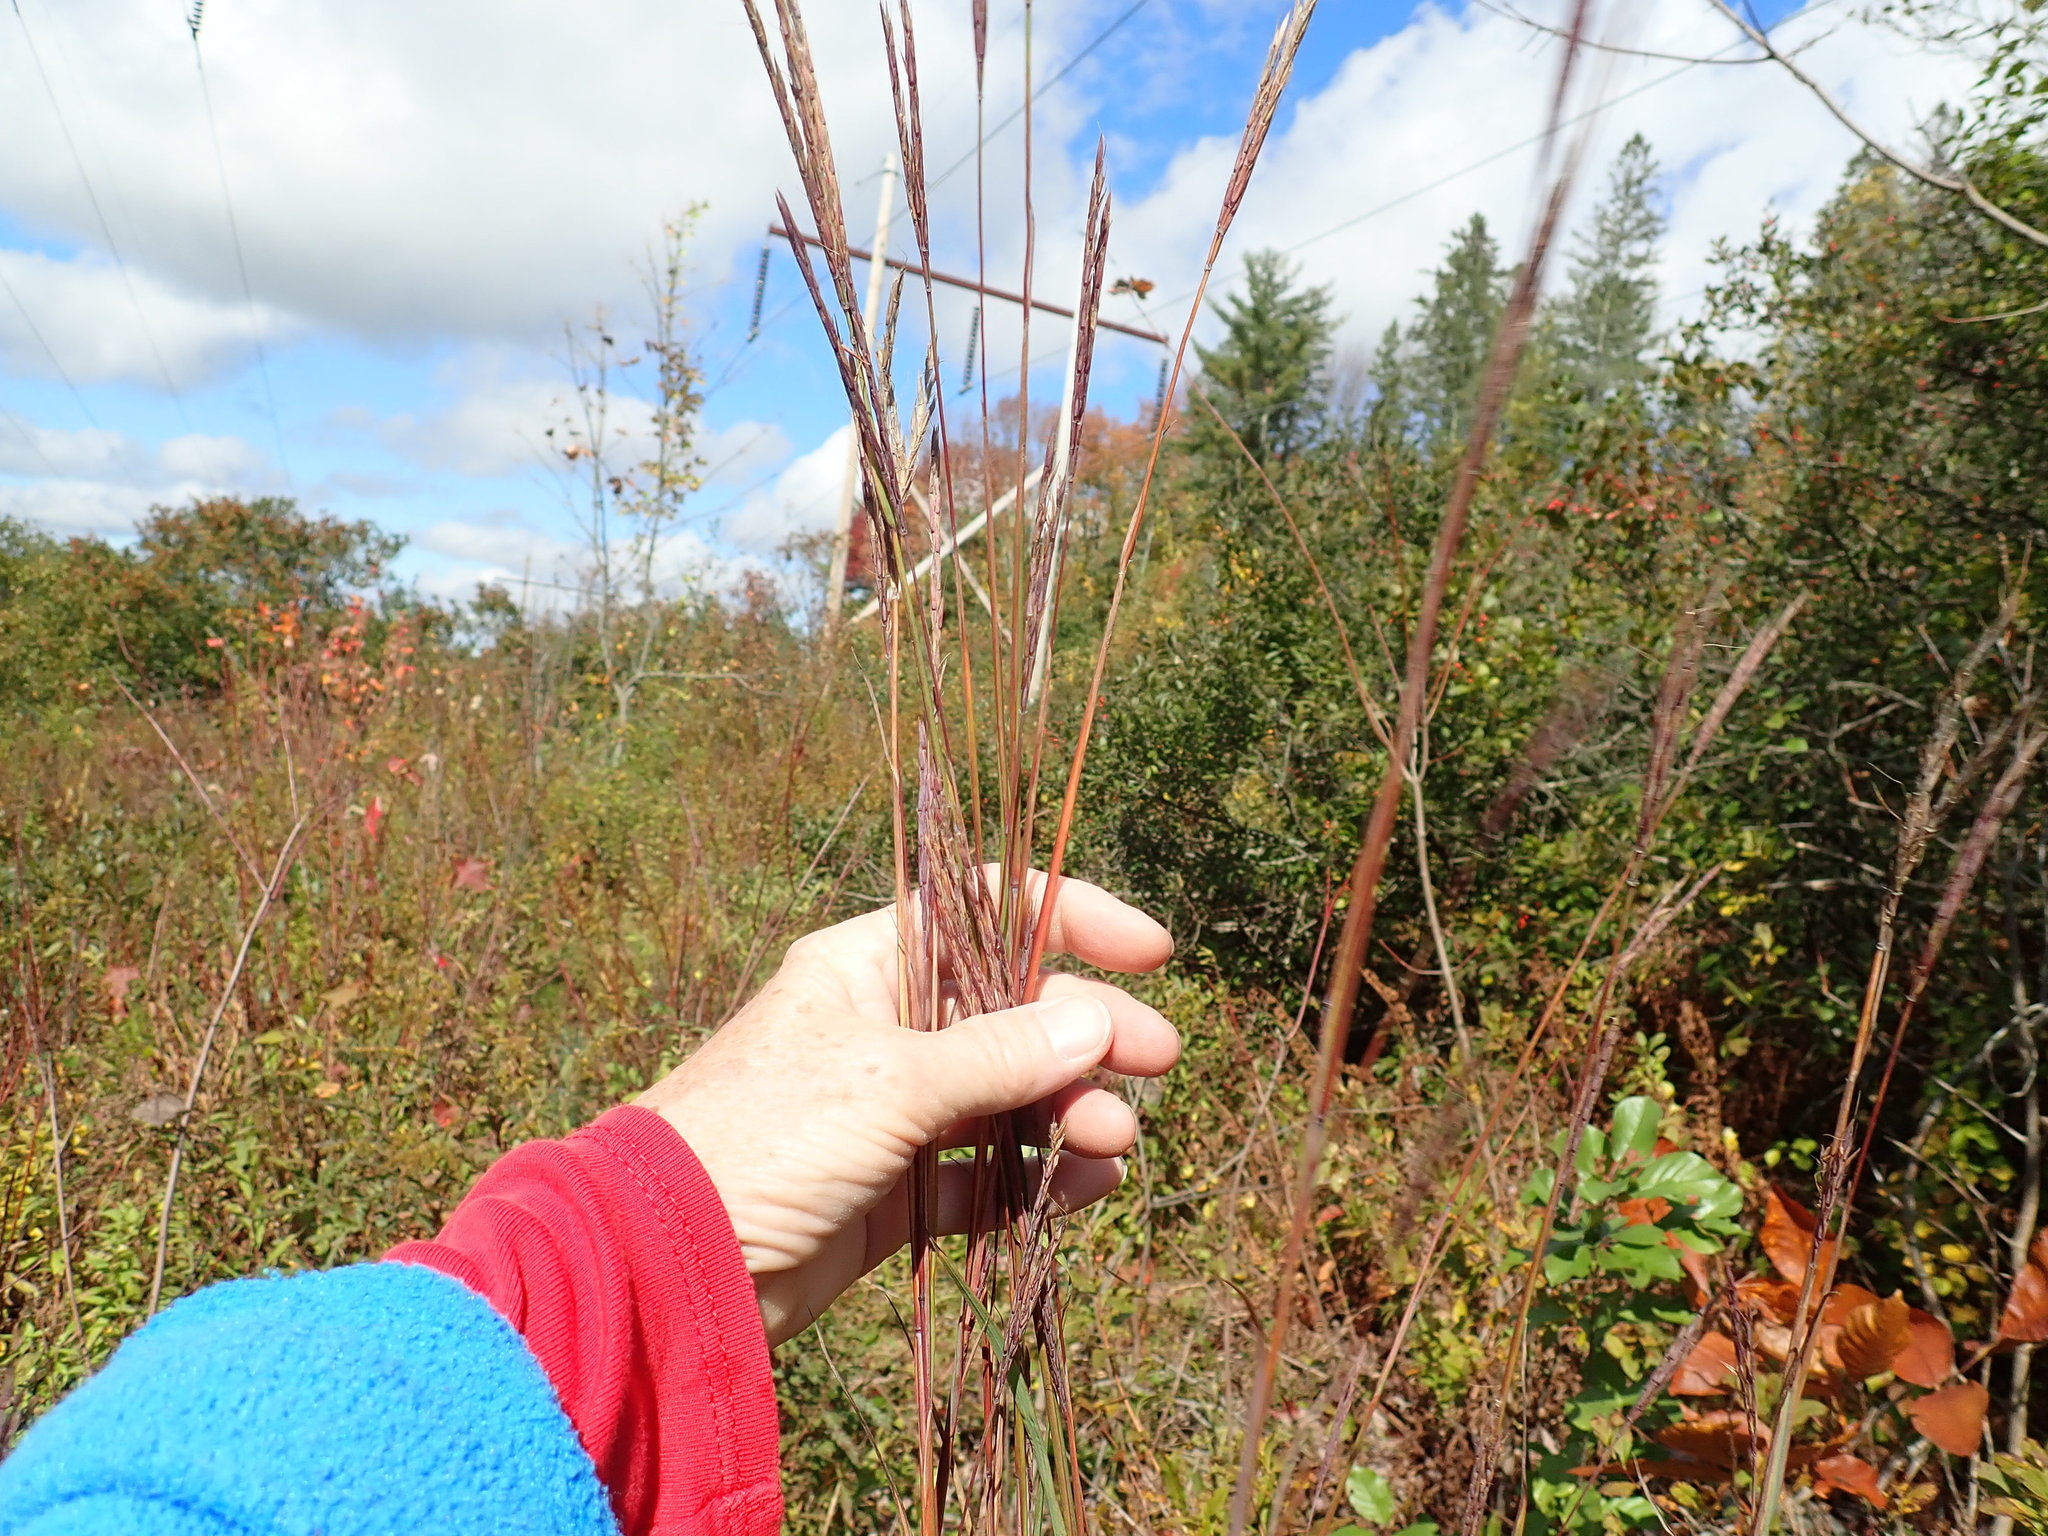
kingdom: Plantae
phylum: Tracheophyta
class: Liliopsida
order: Poales
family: Poaceae
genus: Andropogon
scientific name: Andropogon gerardi
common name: Big bluestem
